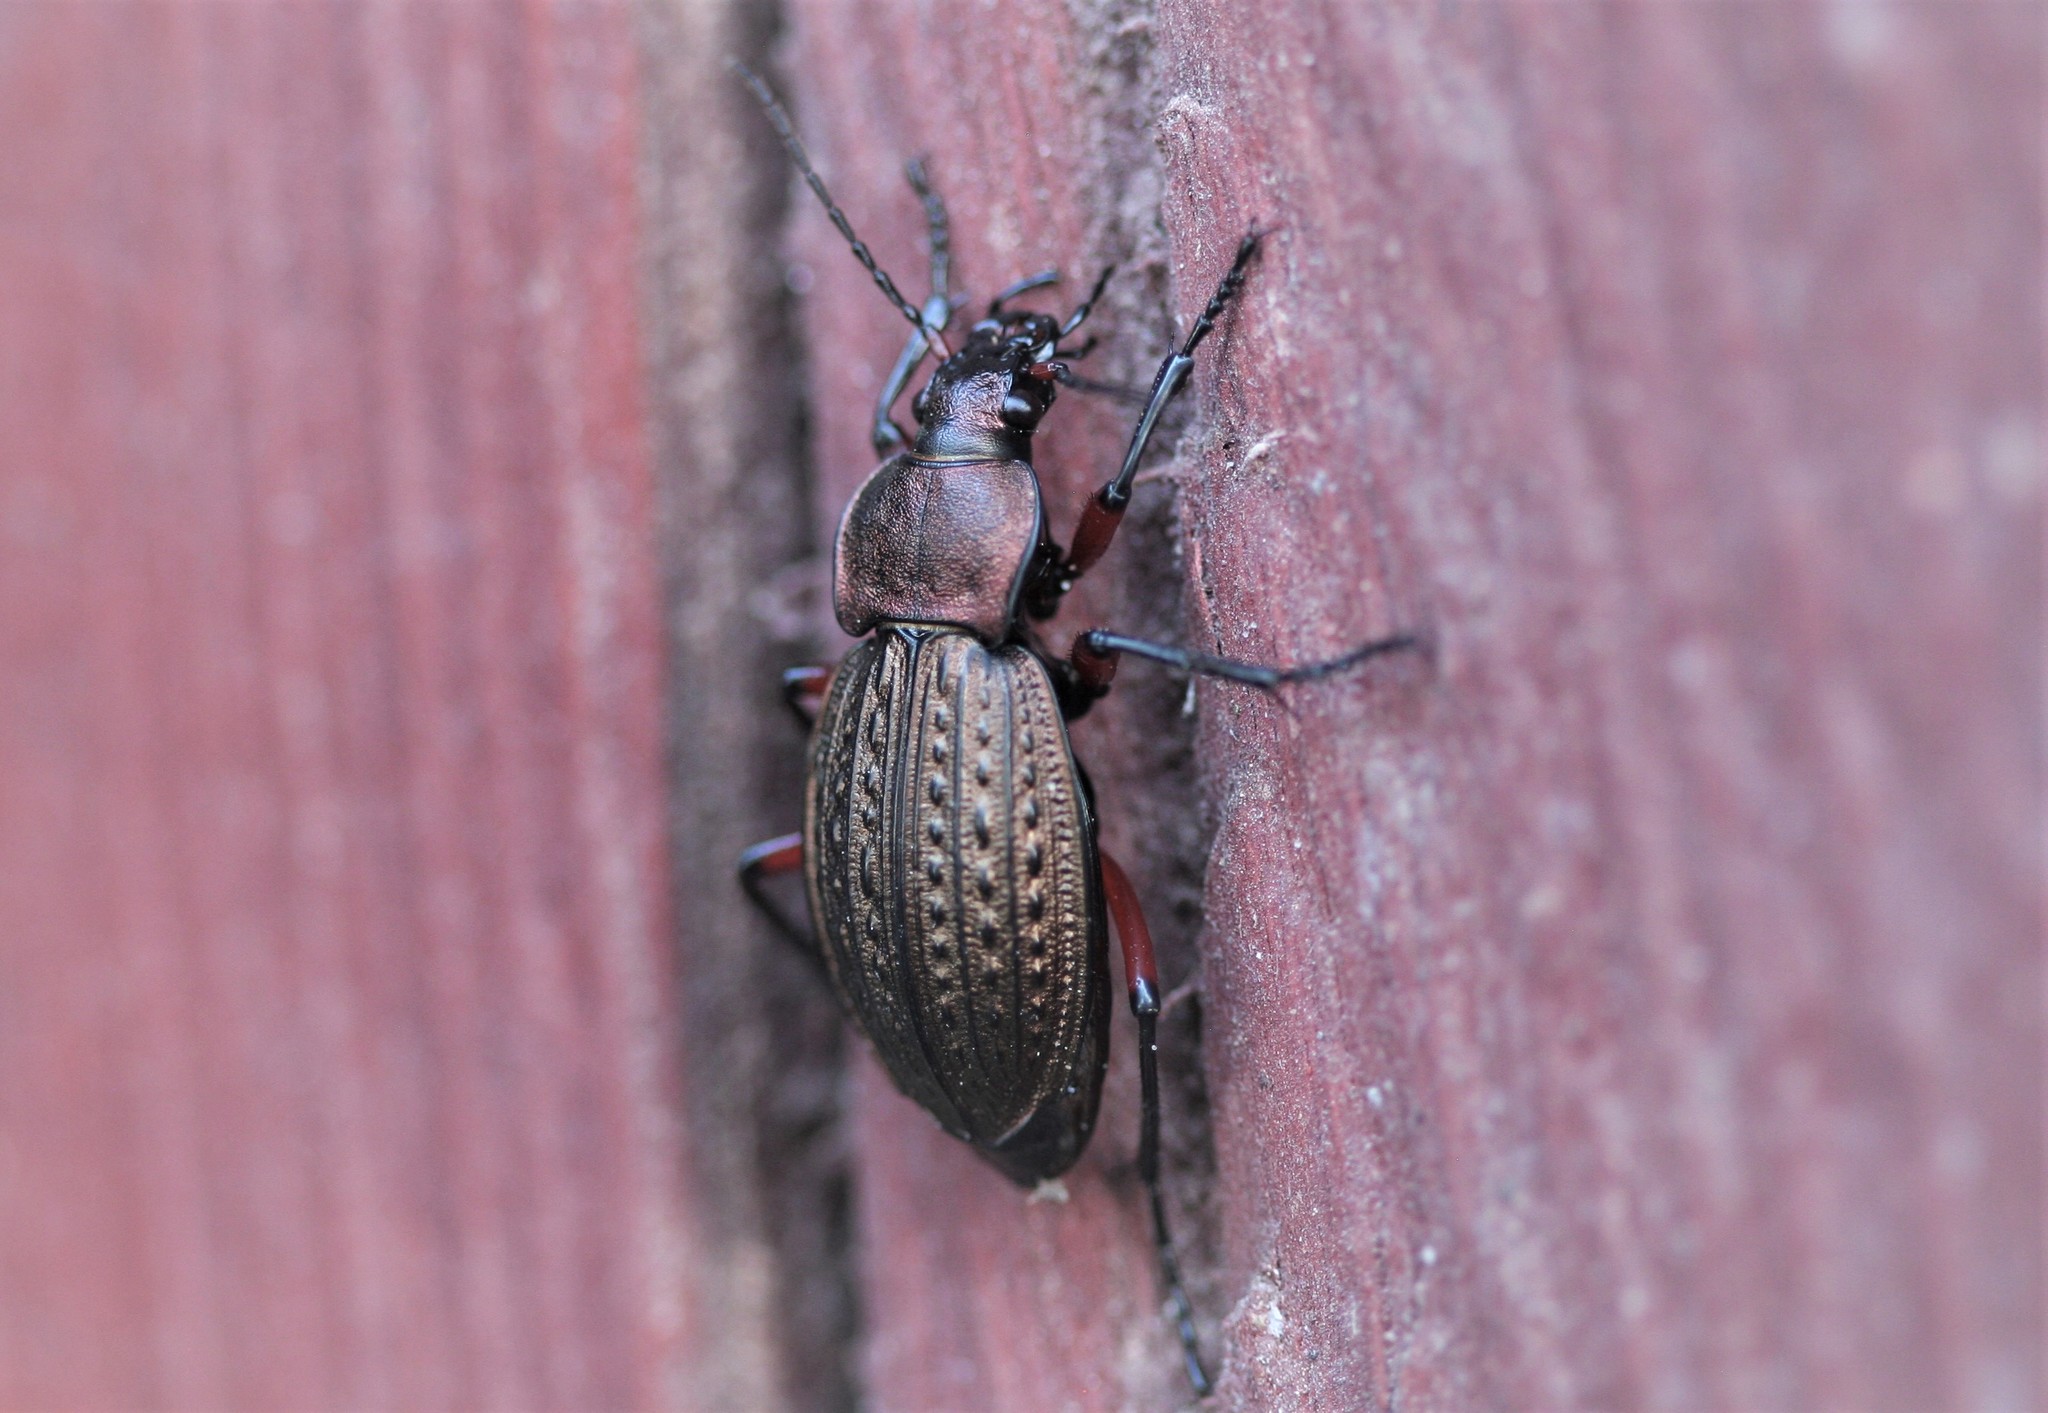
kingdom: Animalia
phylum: Arthropoda
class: Insecta
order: Coleoptera
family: Carabidae
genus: Carabus
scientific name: Carabus cancellatus
